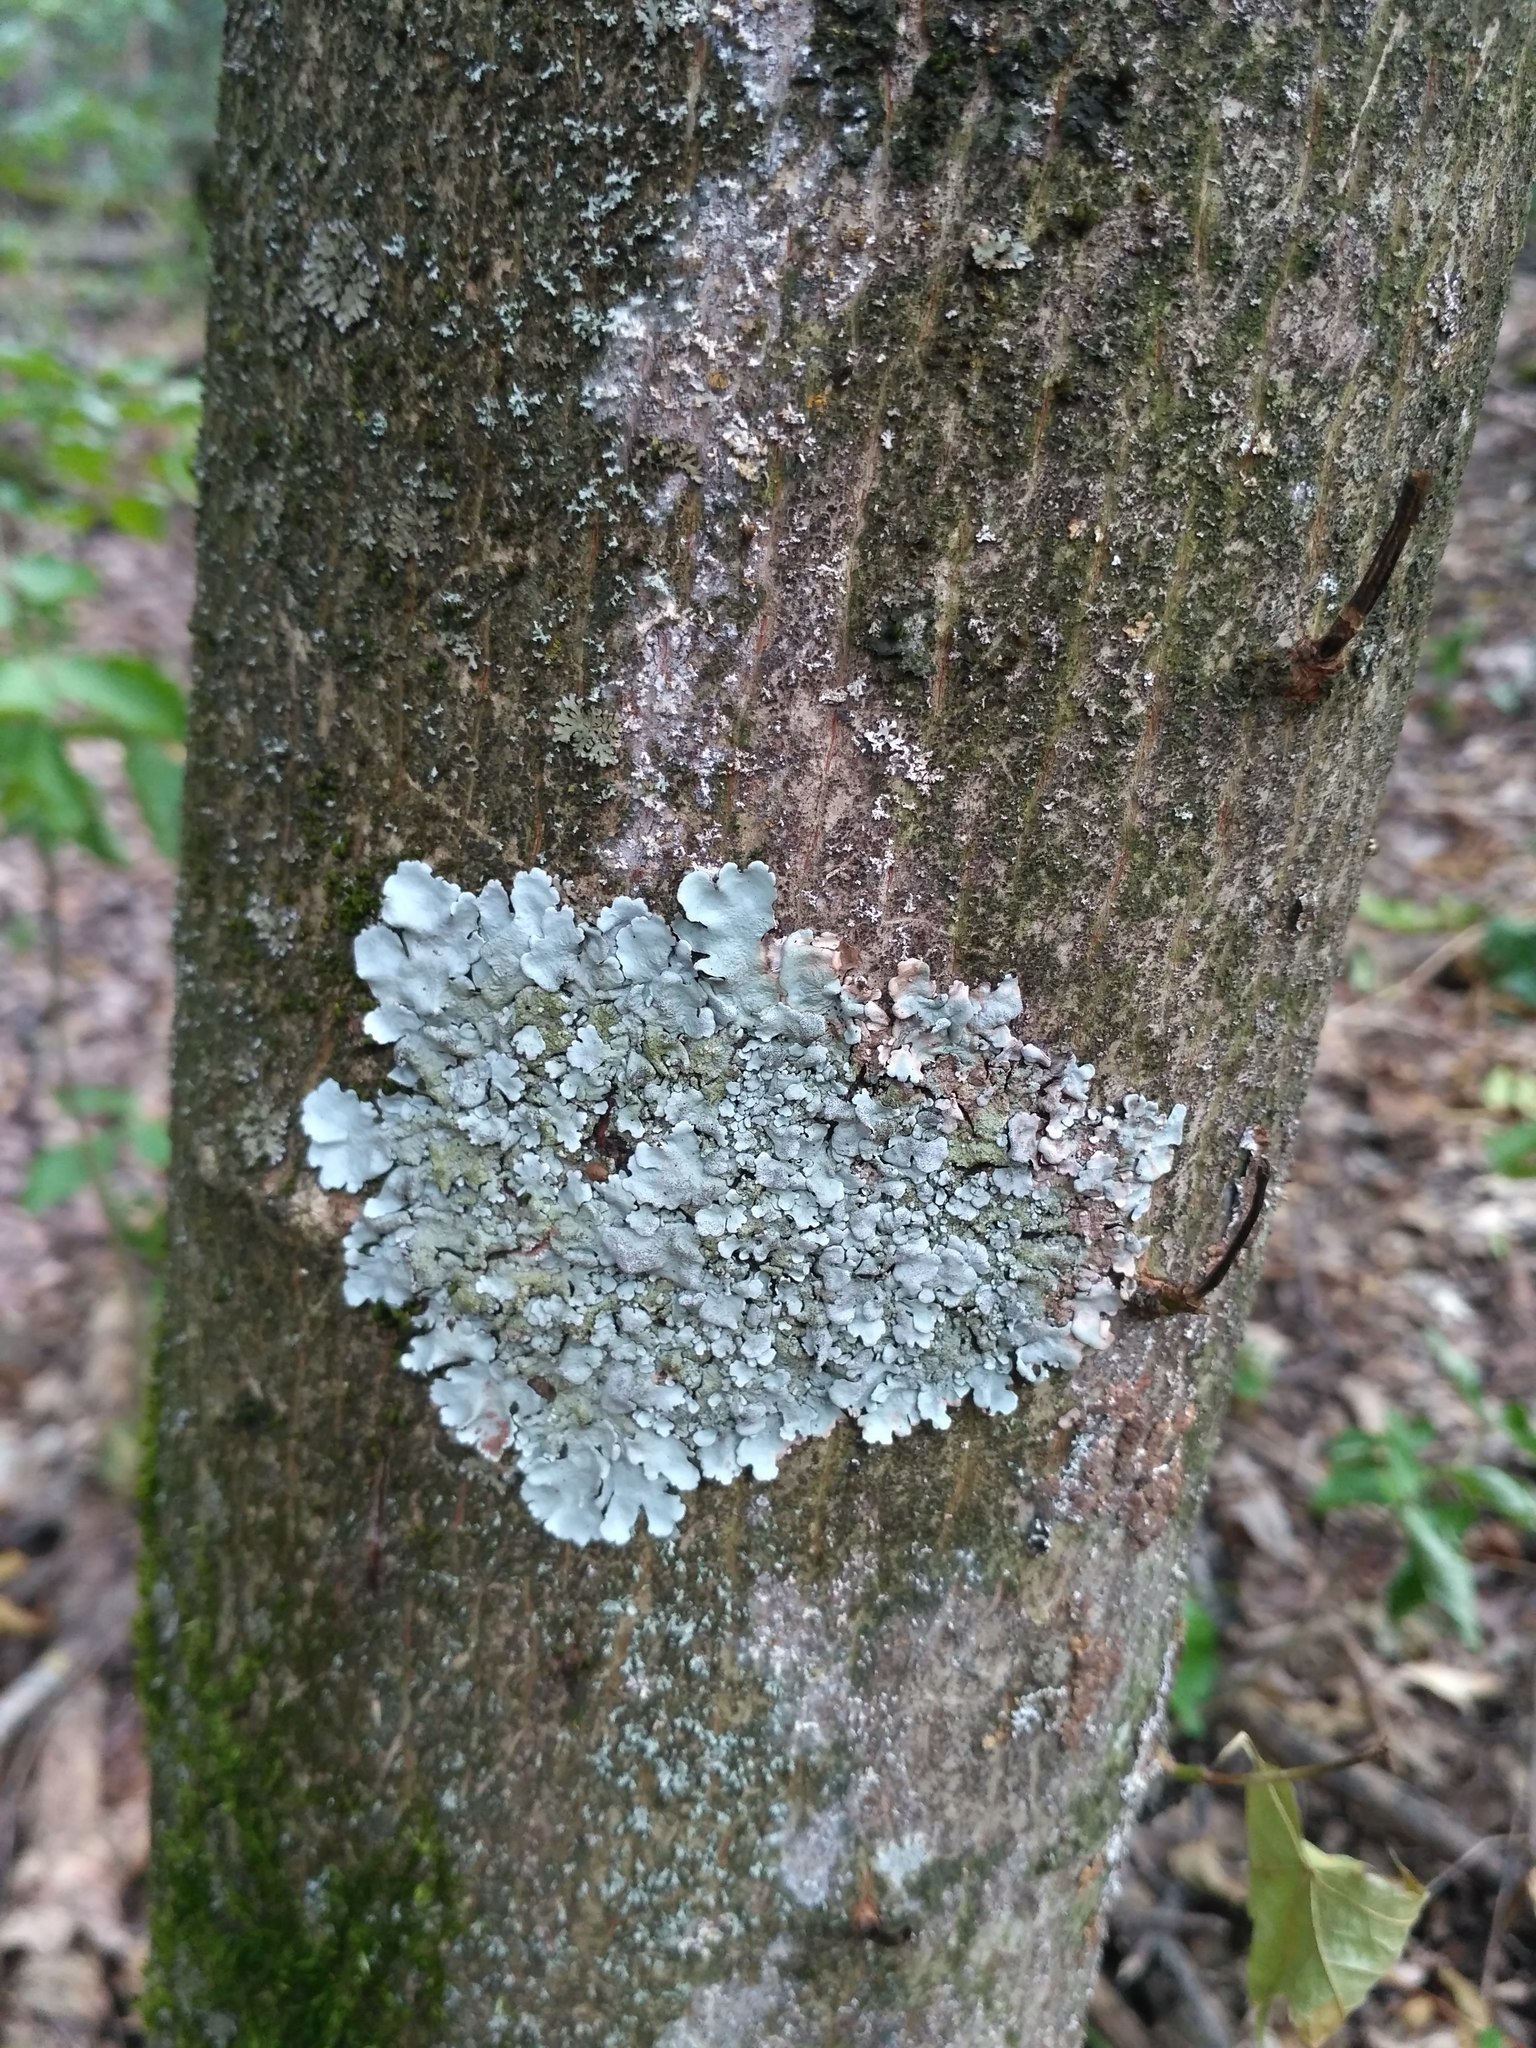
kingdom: Fungi
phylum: Ascomycota
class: Lecanoromycetes
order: Lecanorales
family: Parmeliaceae
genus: Parmelina
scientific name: Parmelina tiliacea
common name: Linden shield lichen
